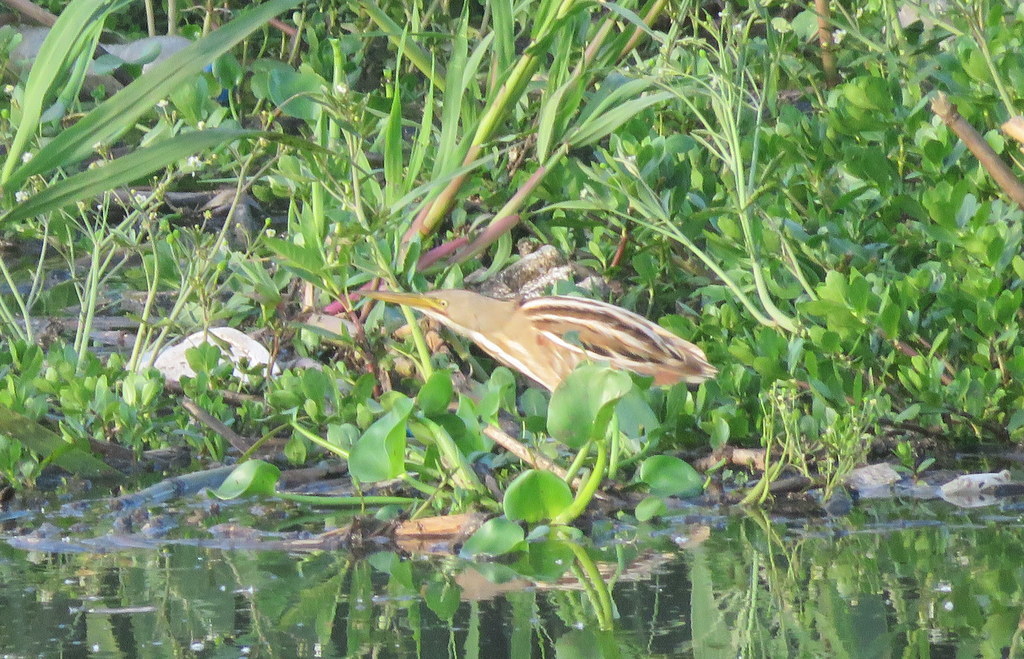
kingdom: Animalia
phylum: Chordata
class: Aves
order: Pelecaniformes
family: Ardeidae
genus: Ixobrychus
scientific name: Ixobrychus involucris
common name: Stripe-backed bittern
